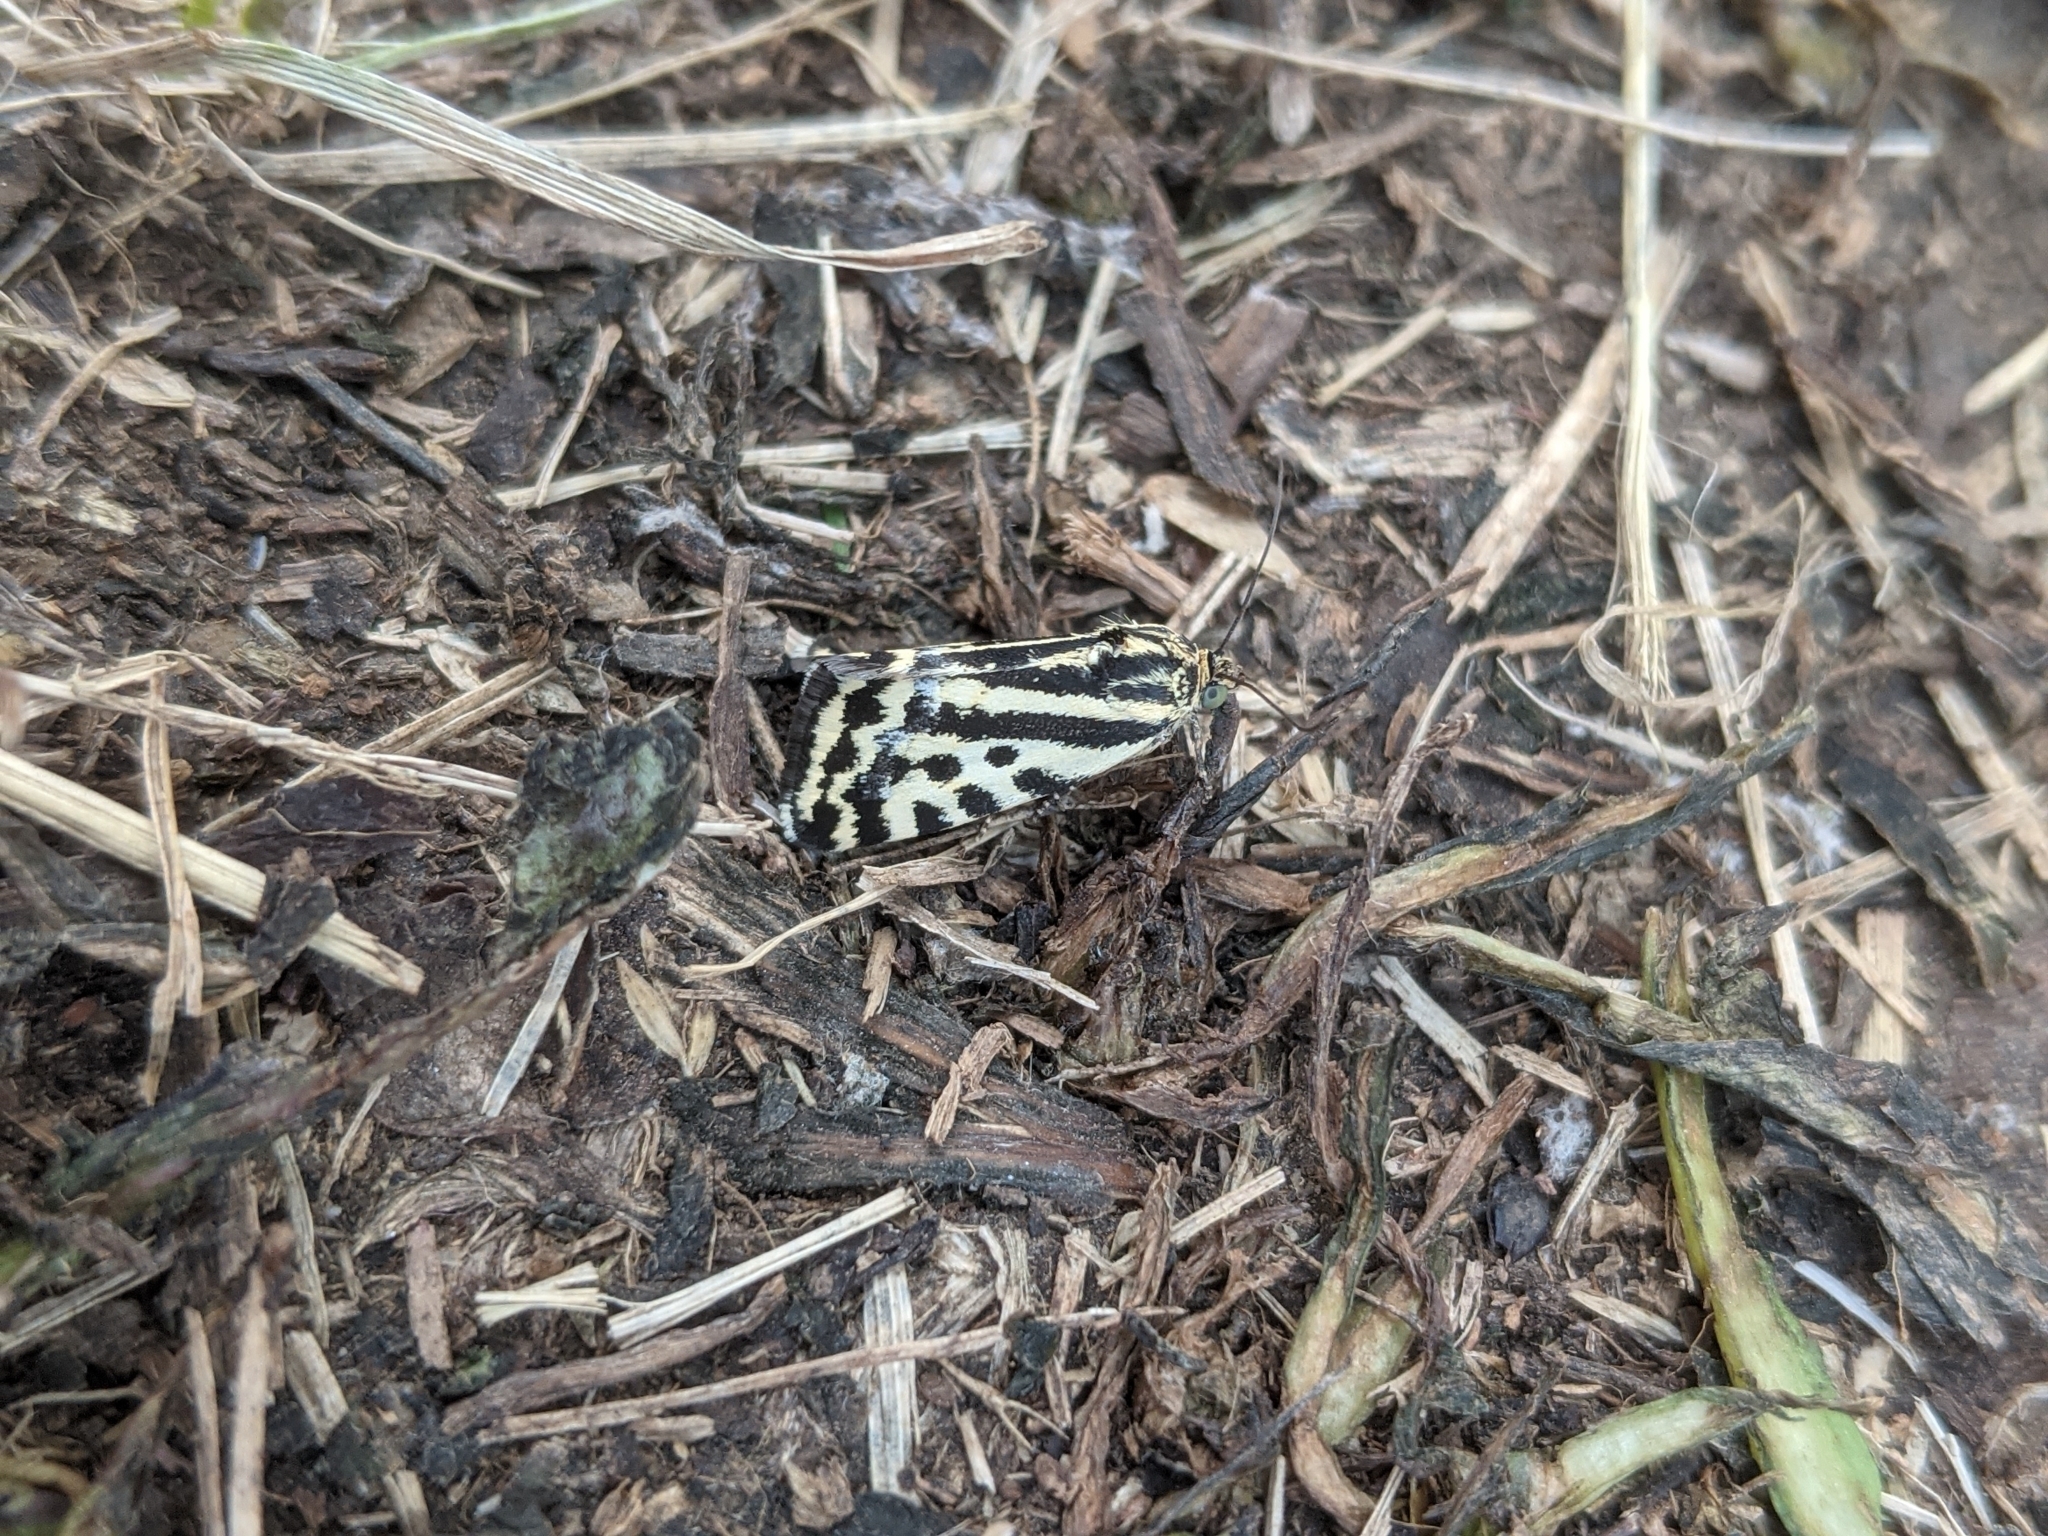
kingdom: Animalia
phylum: Arthropoda
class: Insecta
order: Lepidoptera
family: Noctuidae
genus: Acontia
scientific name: Acontia trabealis
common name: Spotted sulphur
